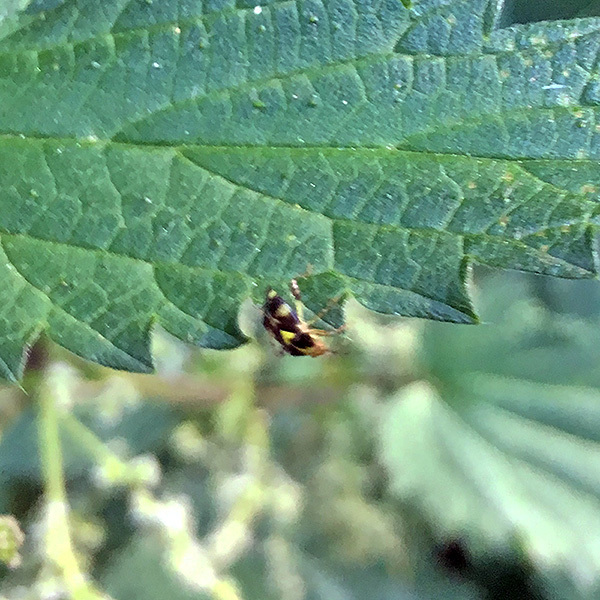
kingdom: Animalia
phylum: Arthropoda
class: Insecta
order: Hemiptera
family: Miridae
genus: Liocoris
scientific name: Liocoris tripustulatus
